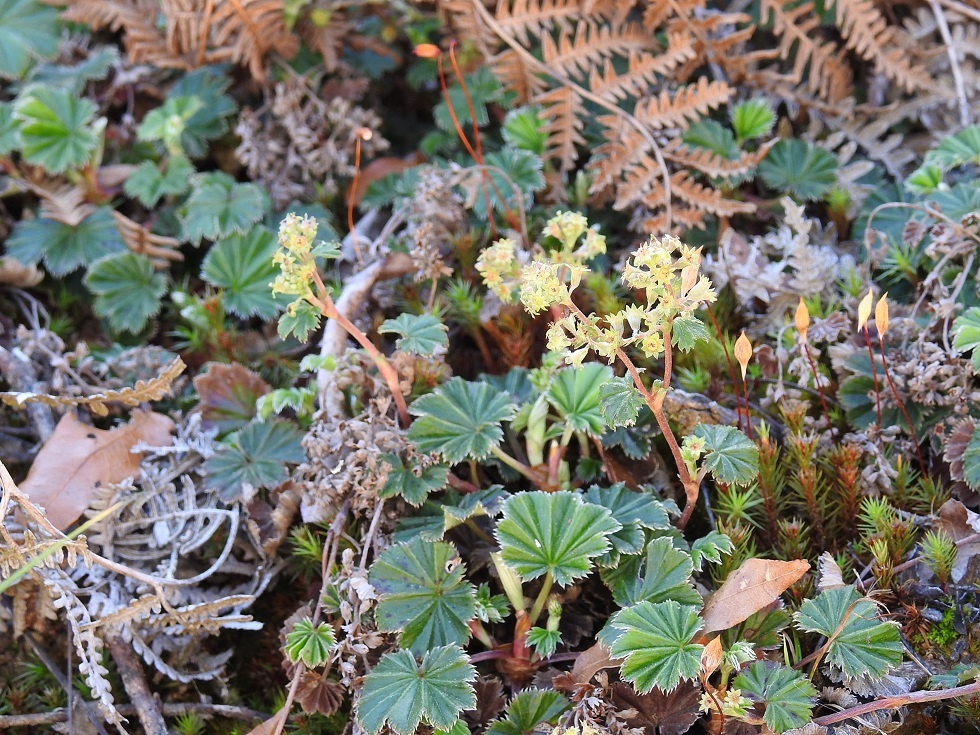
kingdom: Plantae
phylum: Tracheophyta
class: Magnoliopsida
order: Rosales
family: Rosaceae
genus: Lachemilla
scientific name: Lachemilla pectinata
